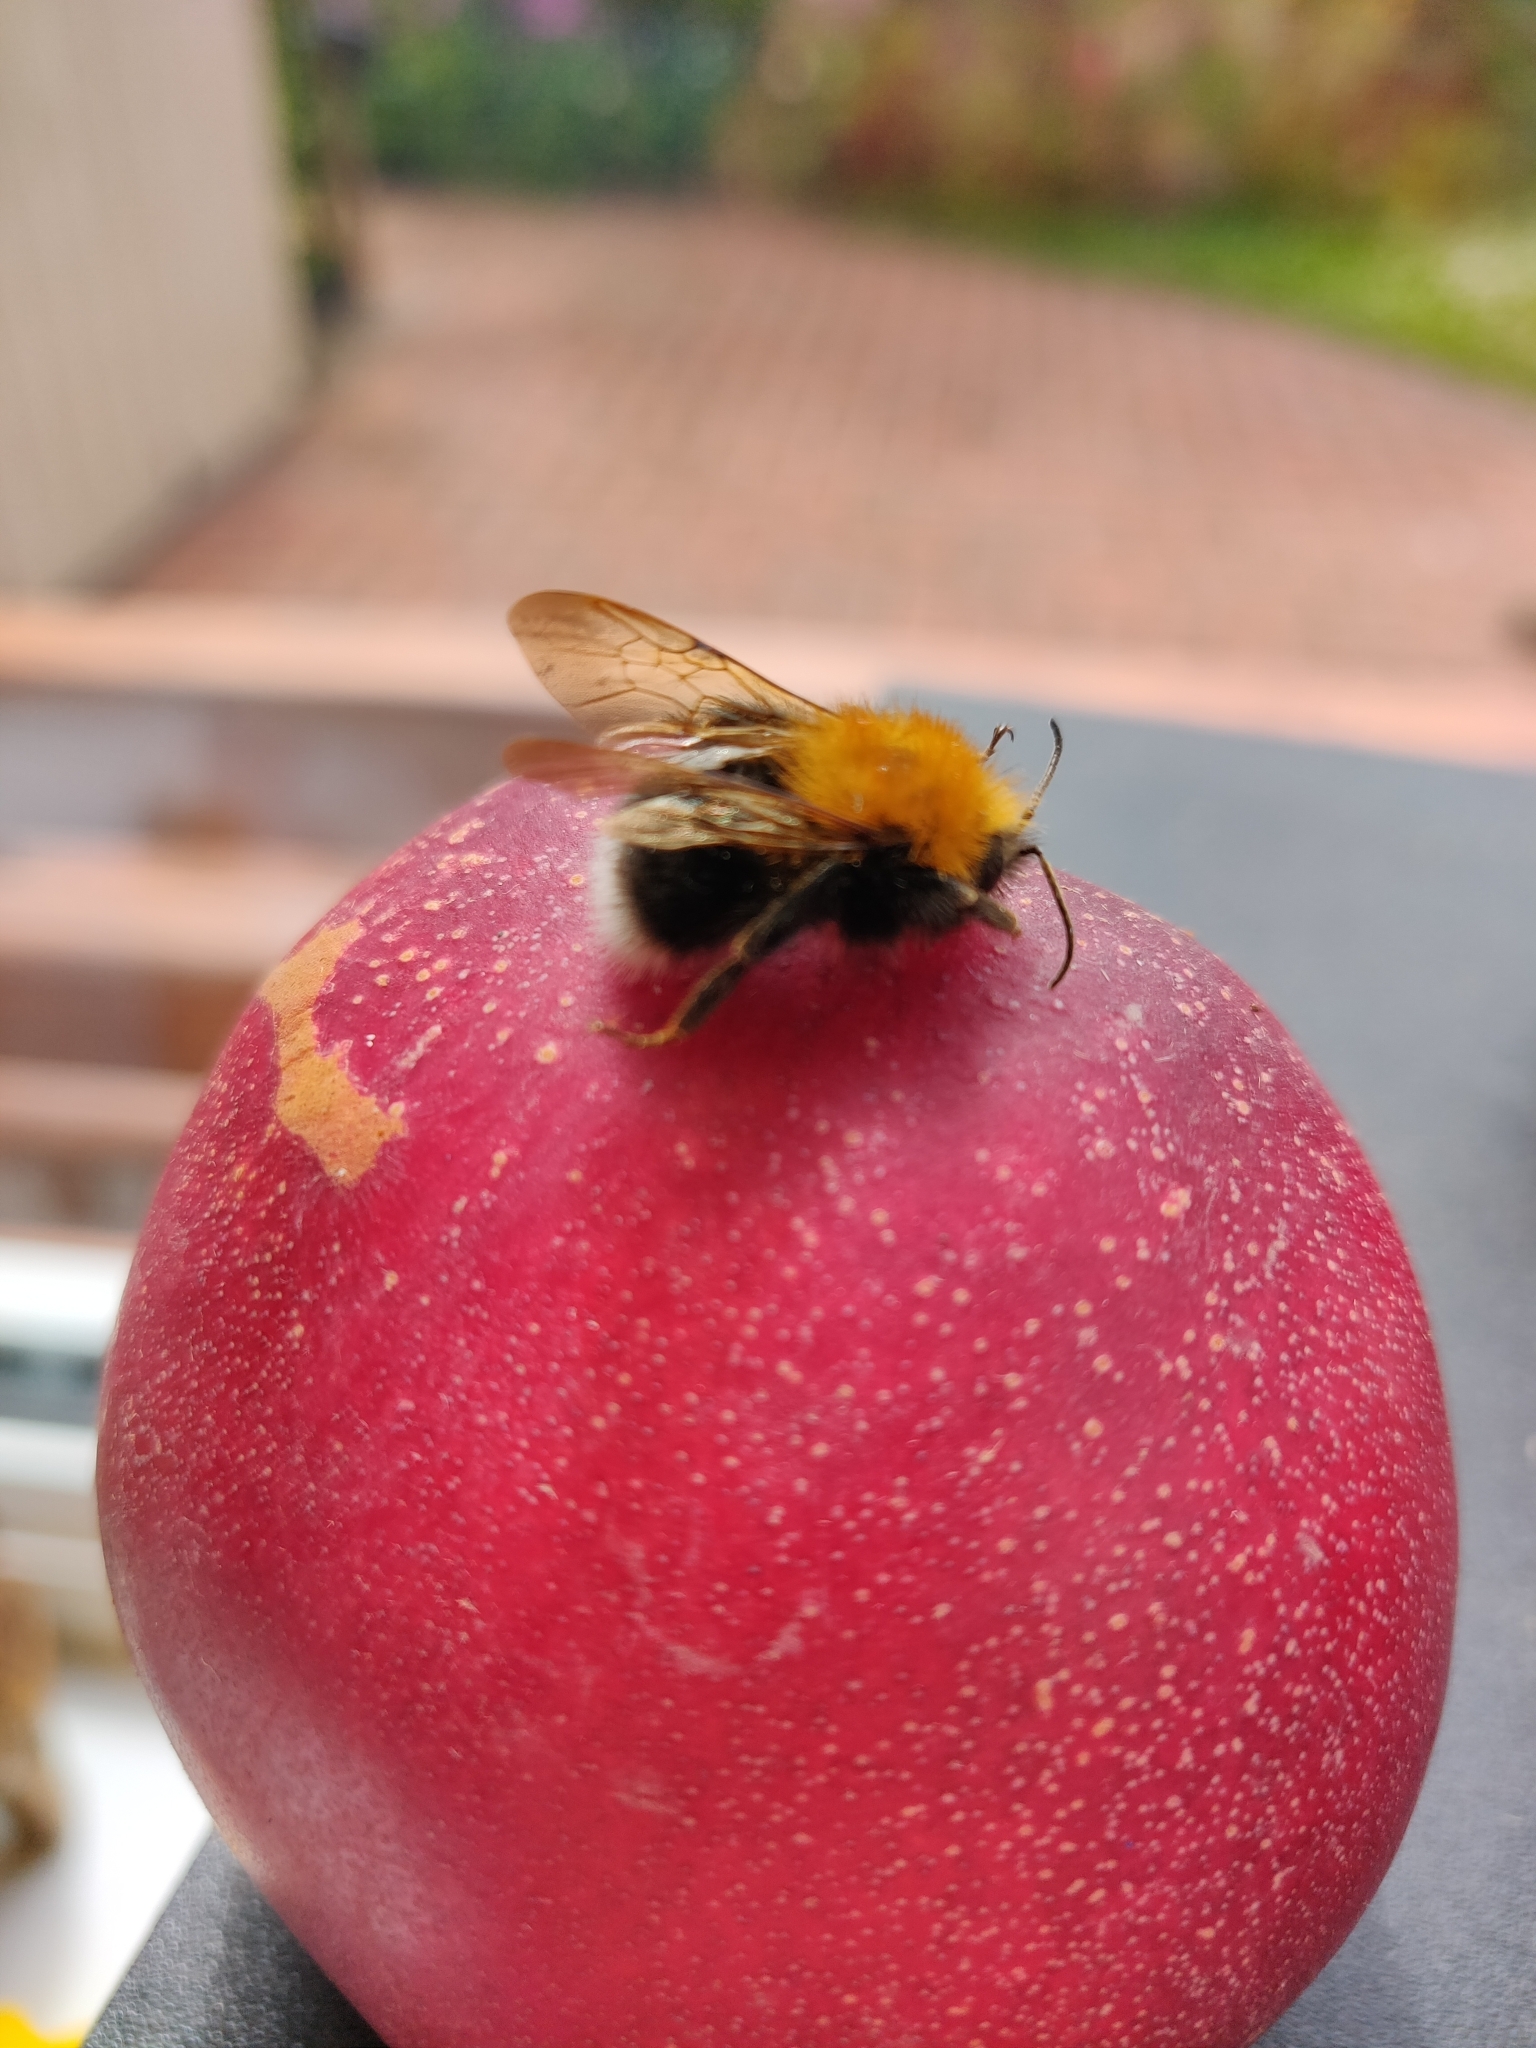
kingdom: Animalia
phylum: Arthropoda
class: Insecta
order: Hymenoptera
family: Apidae
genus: Bombus
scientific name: Bombus hypnorum
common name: New garden bumblebee
